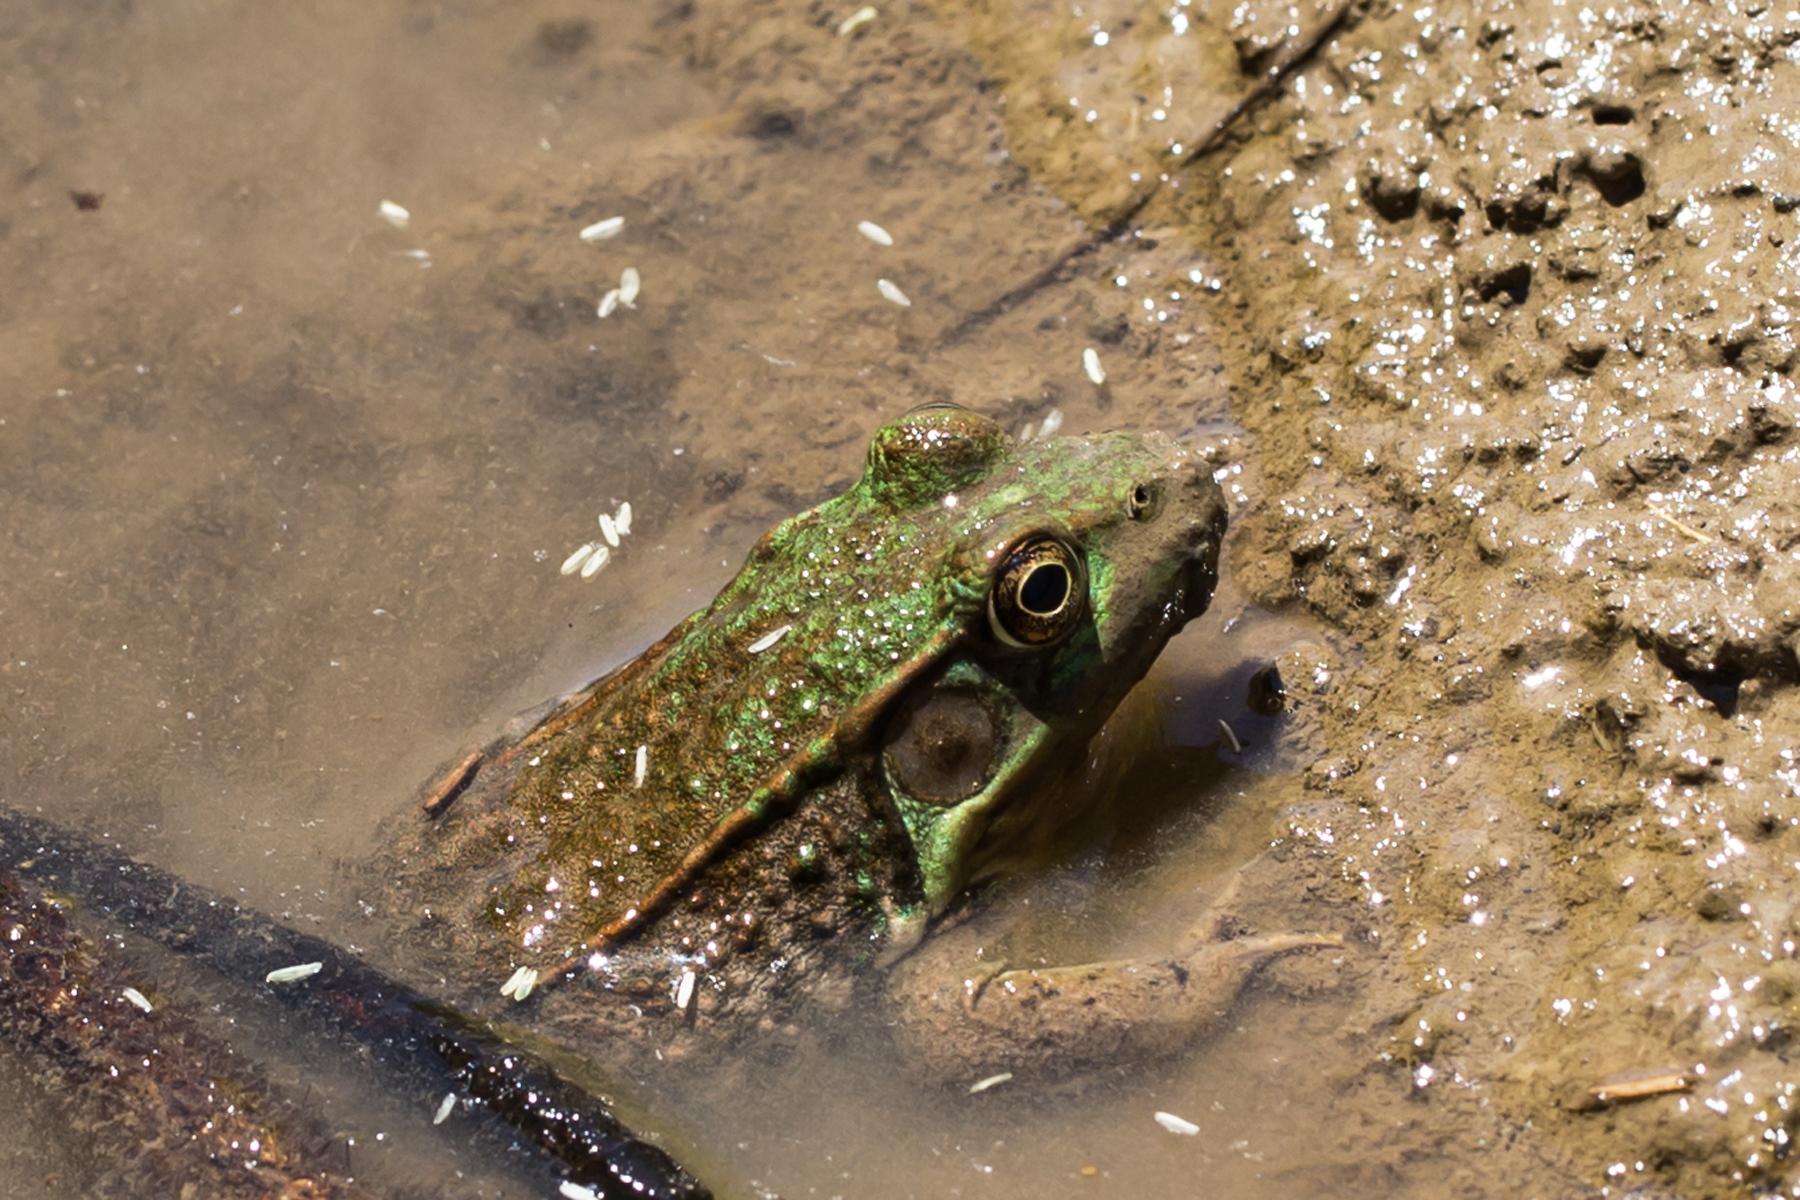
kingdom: Animalia
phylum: Chordata
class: Amphibia
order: Anura
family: Ranidae
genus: Lithobates
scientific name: Lithobates clamitans
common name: Green frog
